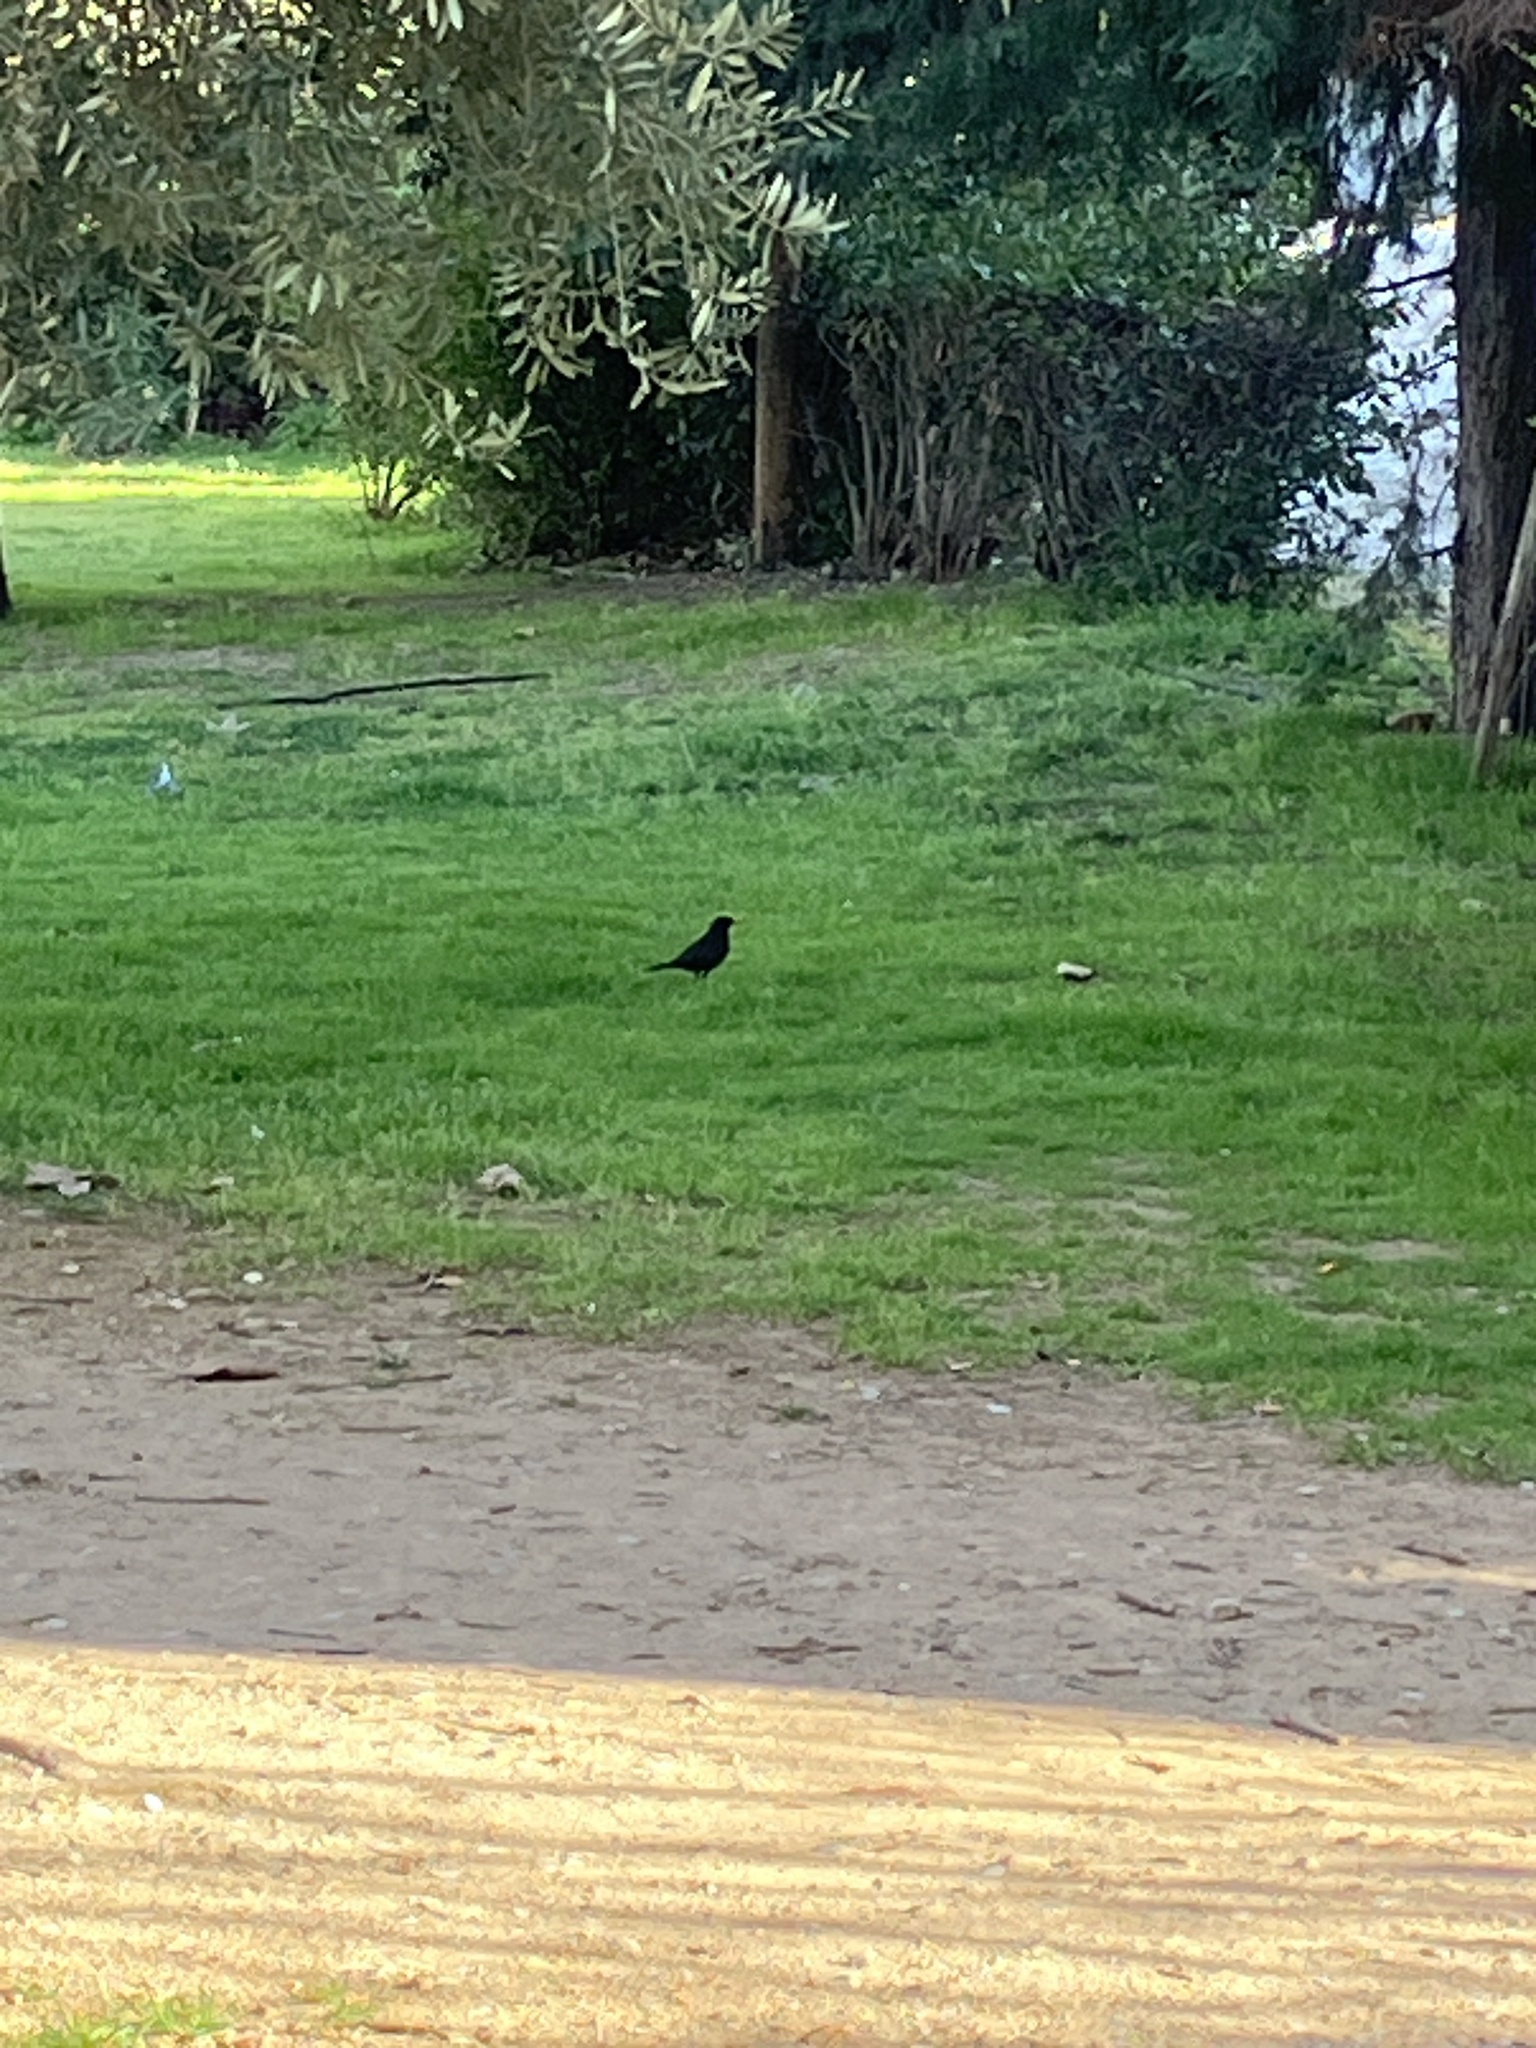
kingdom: Animalia
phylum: Chordata
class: Aves
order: Passeriformes
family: Turdidae
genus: Turdus
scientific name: Turdus merula
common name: Common blackbird
